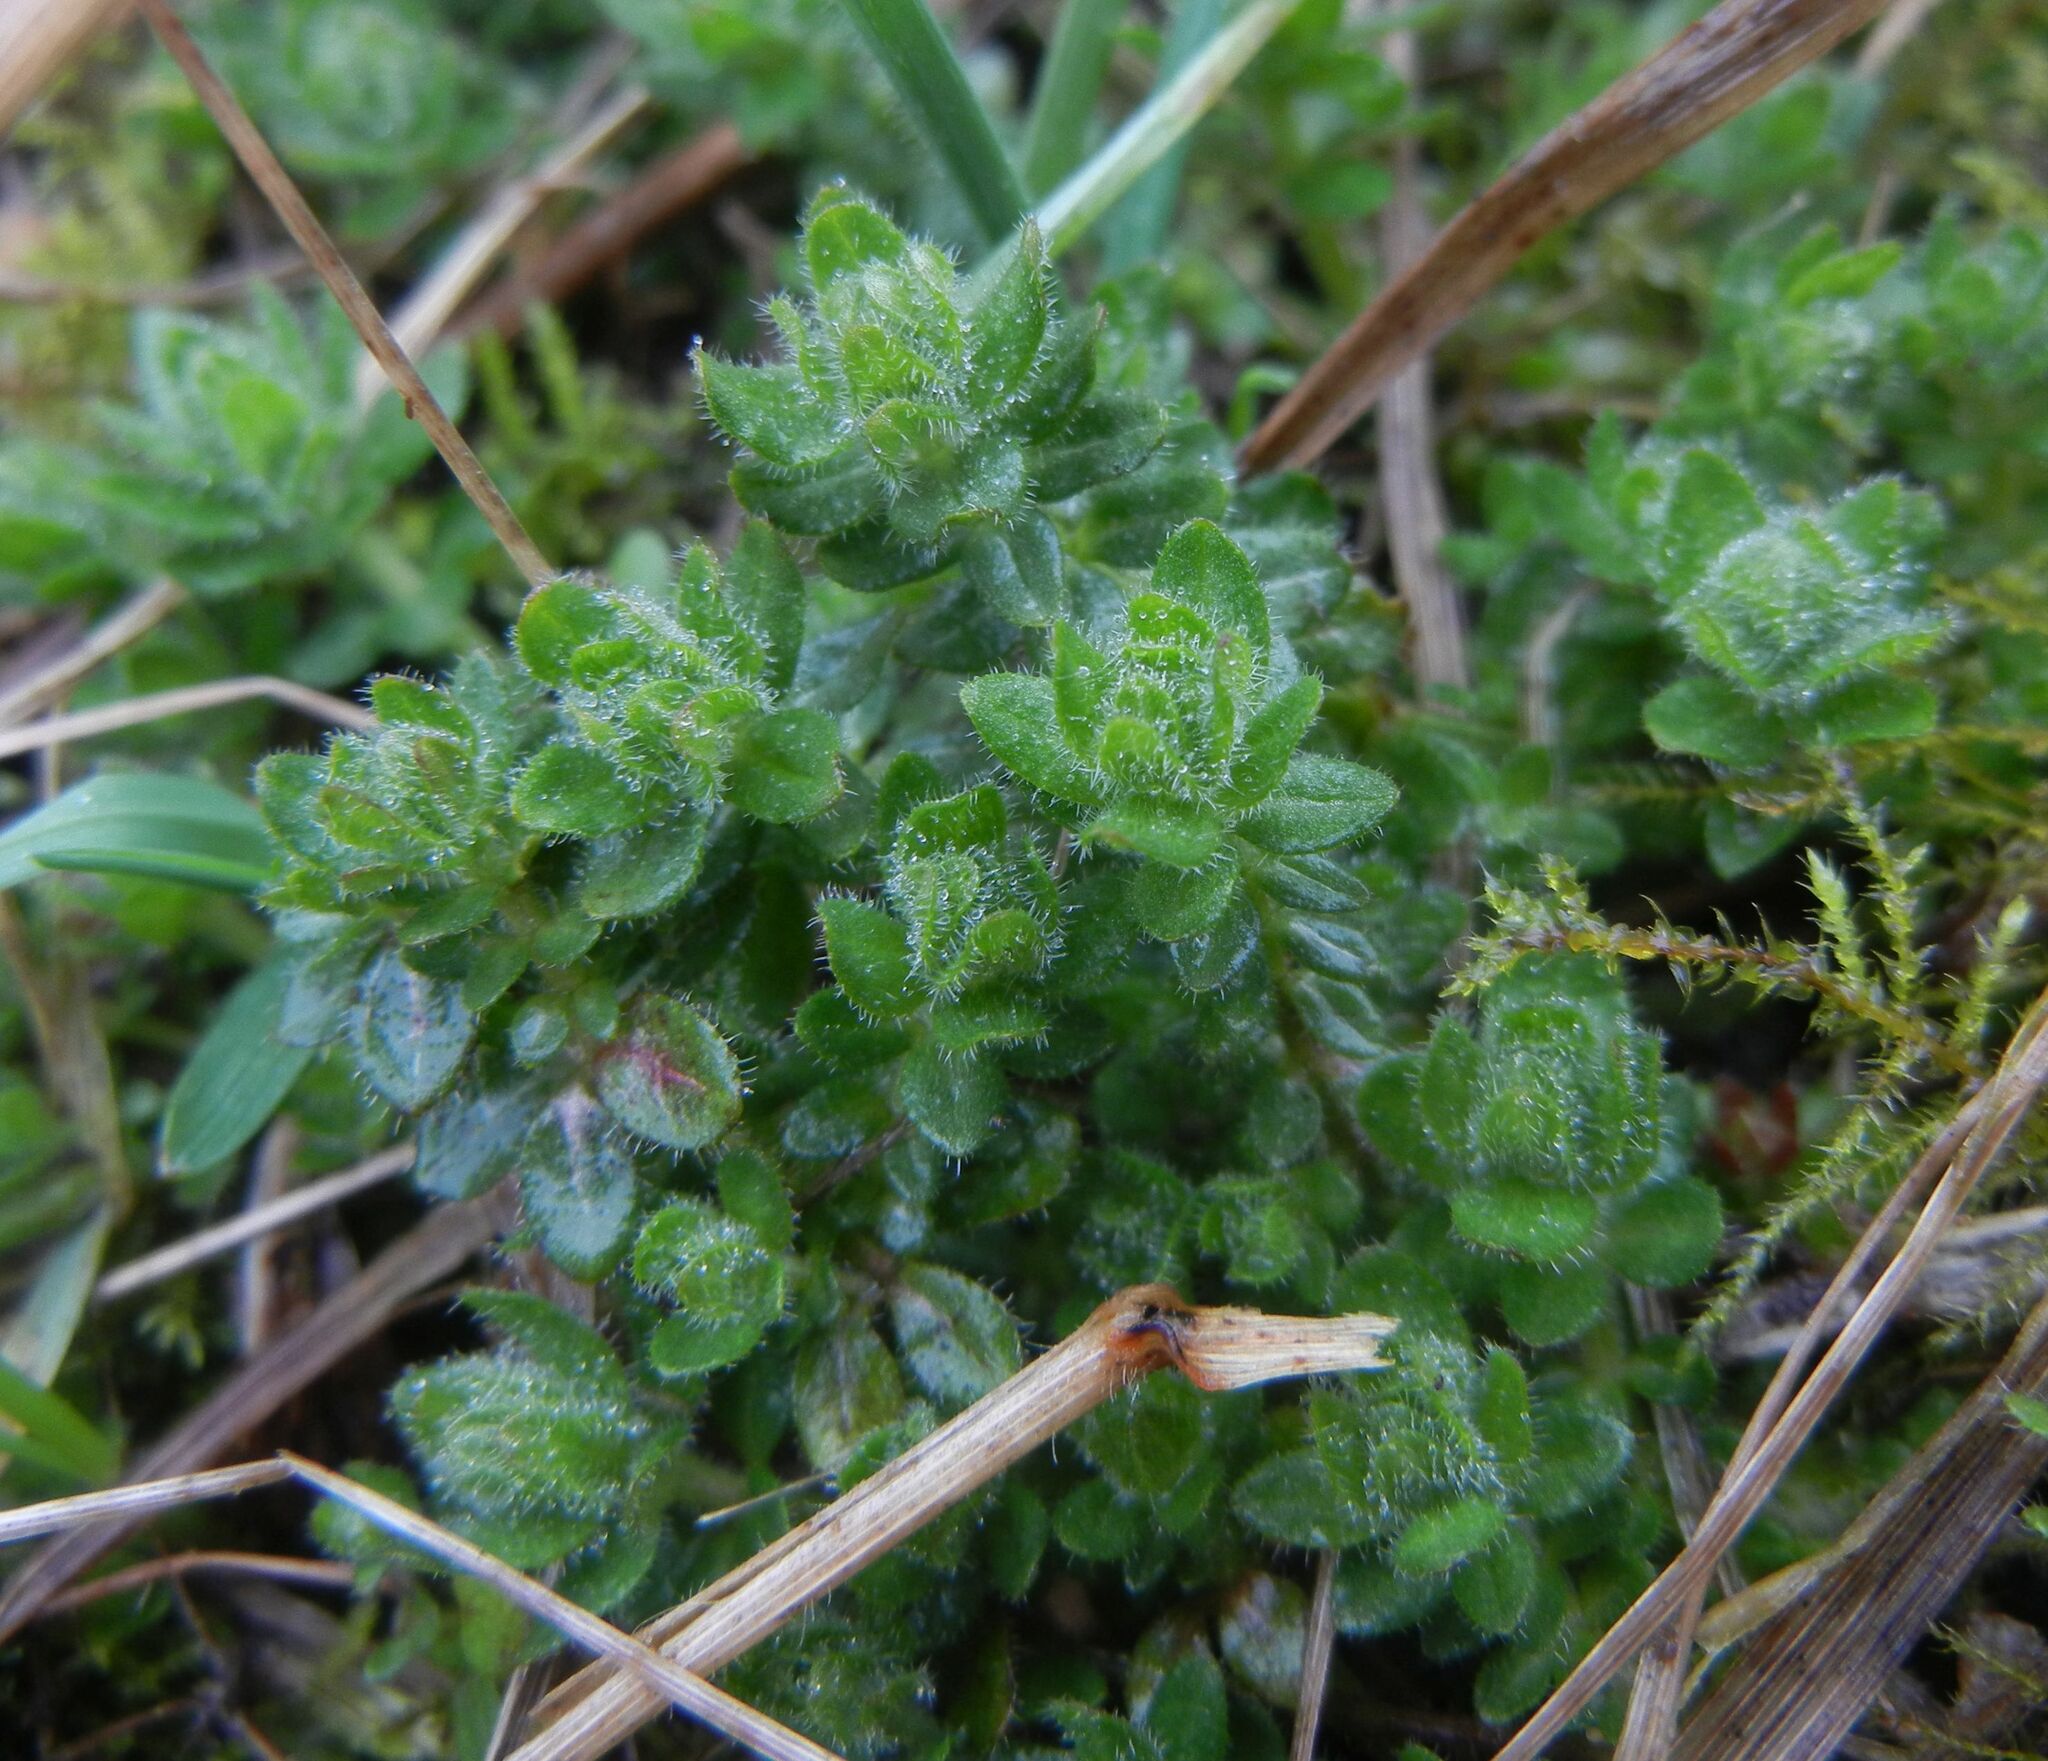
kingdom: Plantae
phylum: Tracheophyta
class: Magnoliopsida
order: Gentianales
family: Rubiaceae
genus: Cruciata
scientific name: Cruciata laevipes
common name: Crosswort
